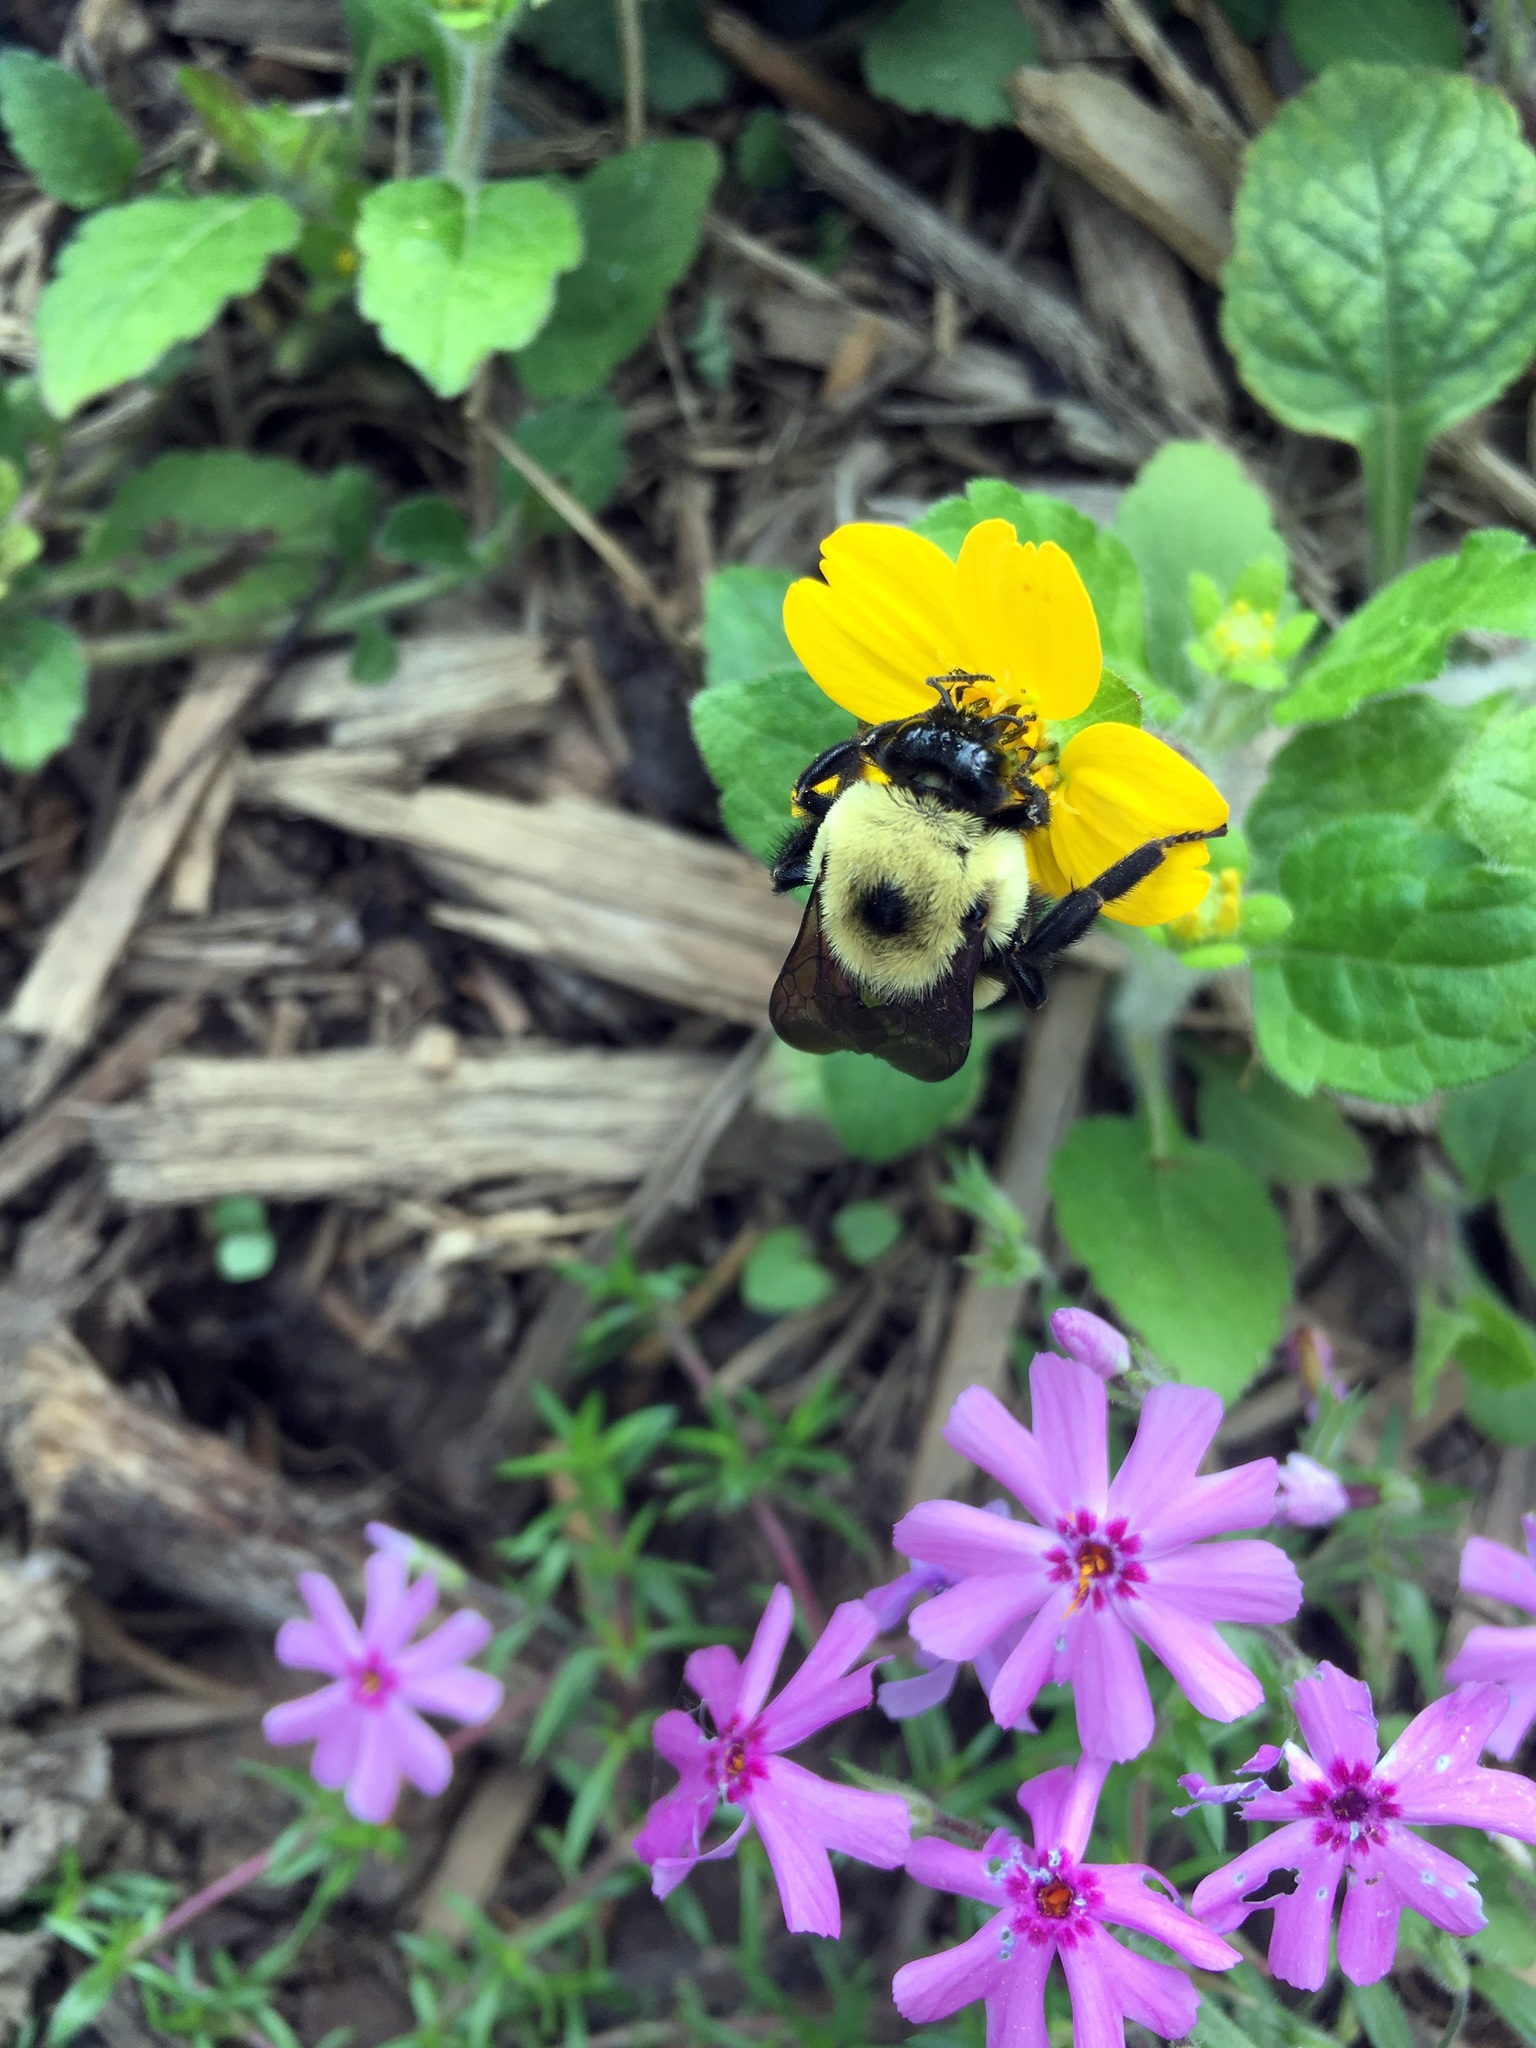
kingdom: Animalia
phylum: Arthropoda
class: Insecta
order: Hymenoptera
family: Apidae
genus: Bombus
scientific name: Bombus griseocollis
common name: Brown-belted bumble bee
